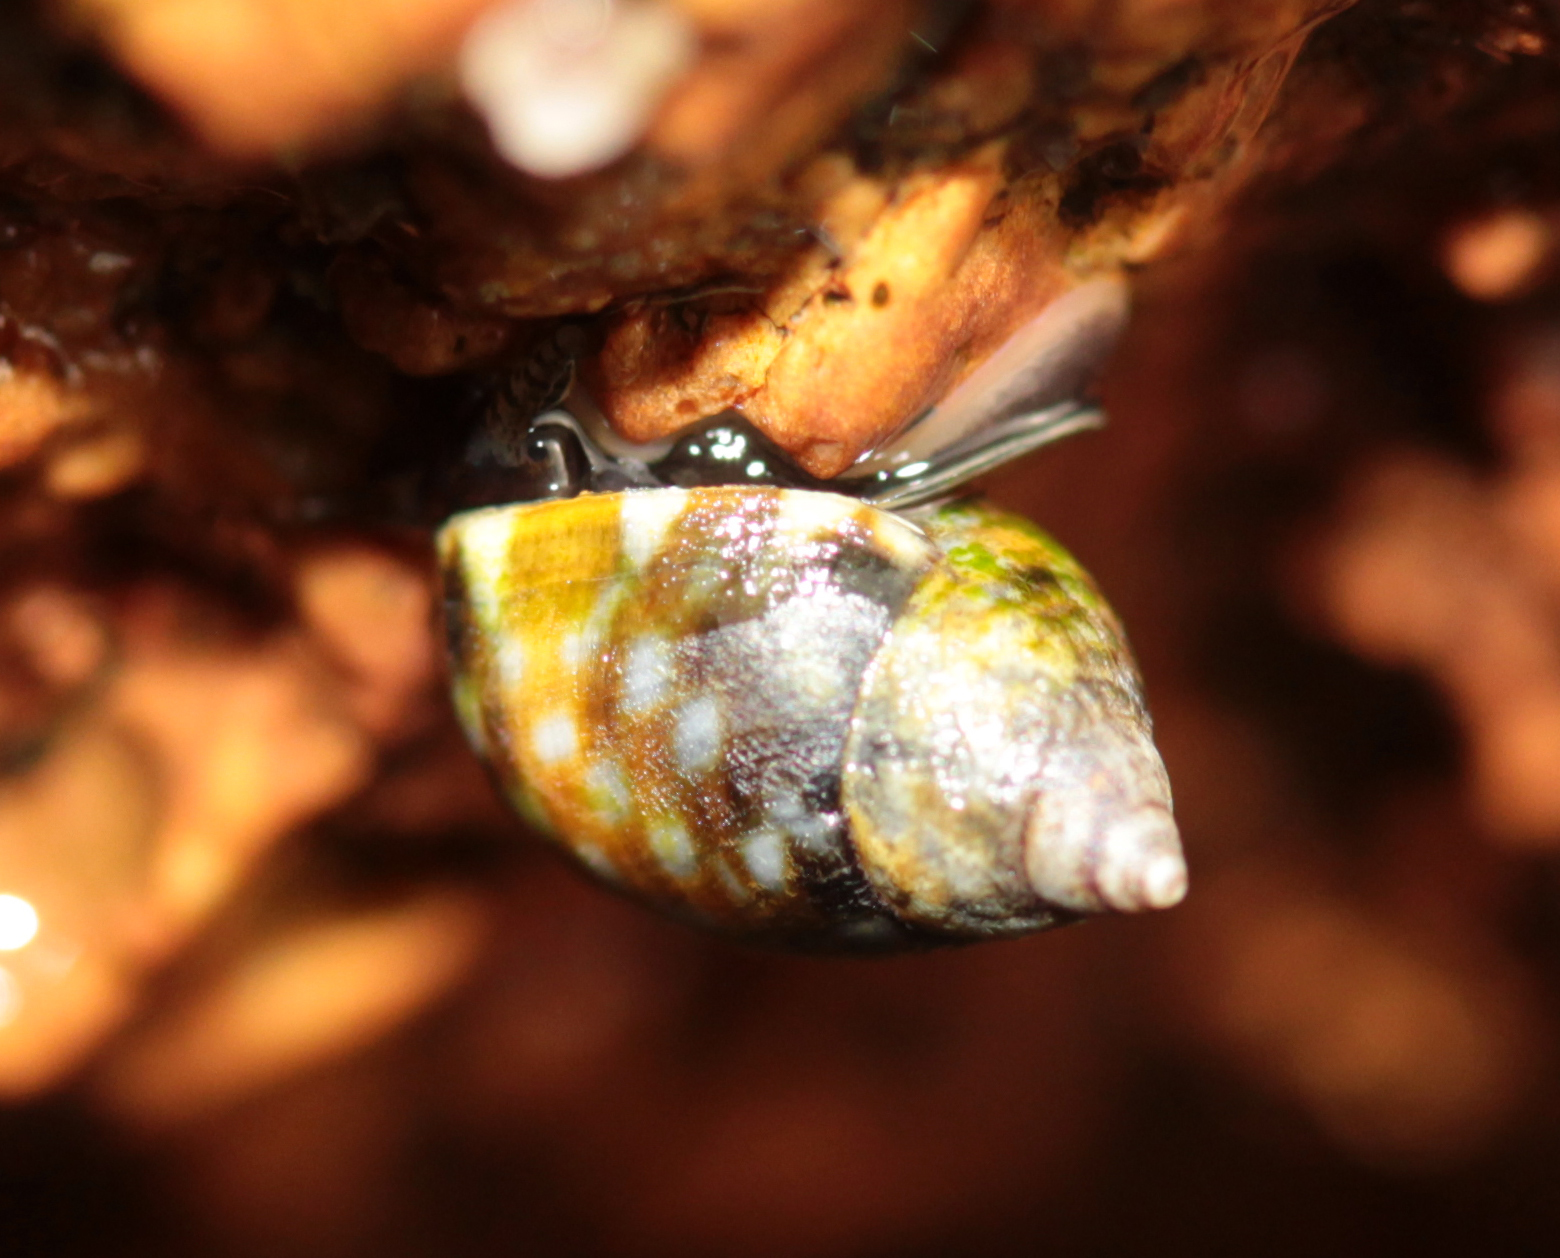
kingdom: Animalia
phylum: Mollusca
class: Gastropoda
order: Littorinimorpha
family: Littorinidae
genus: Littorina
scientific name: Littorina scutulata
